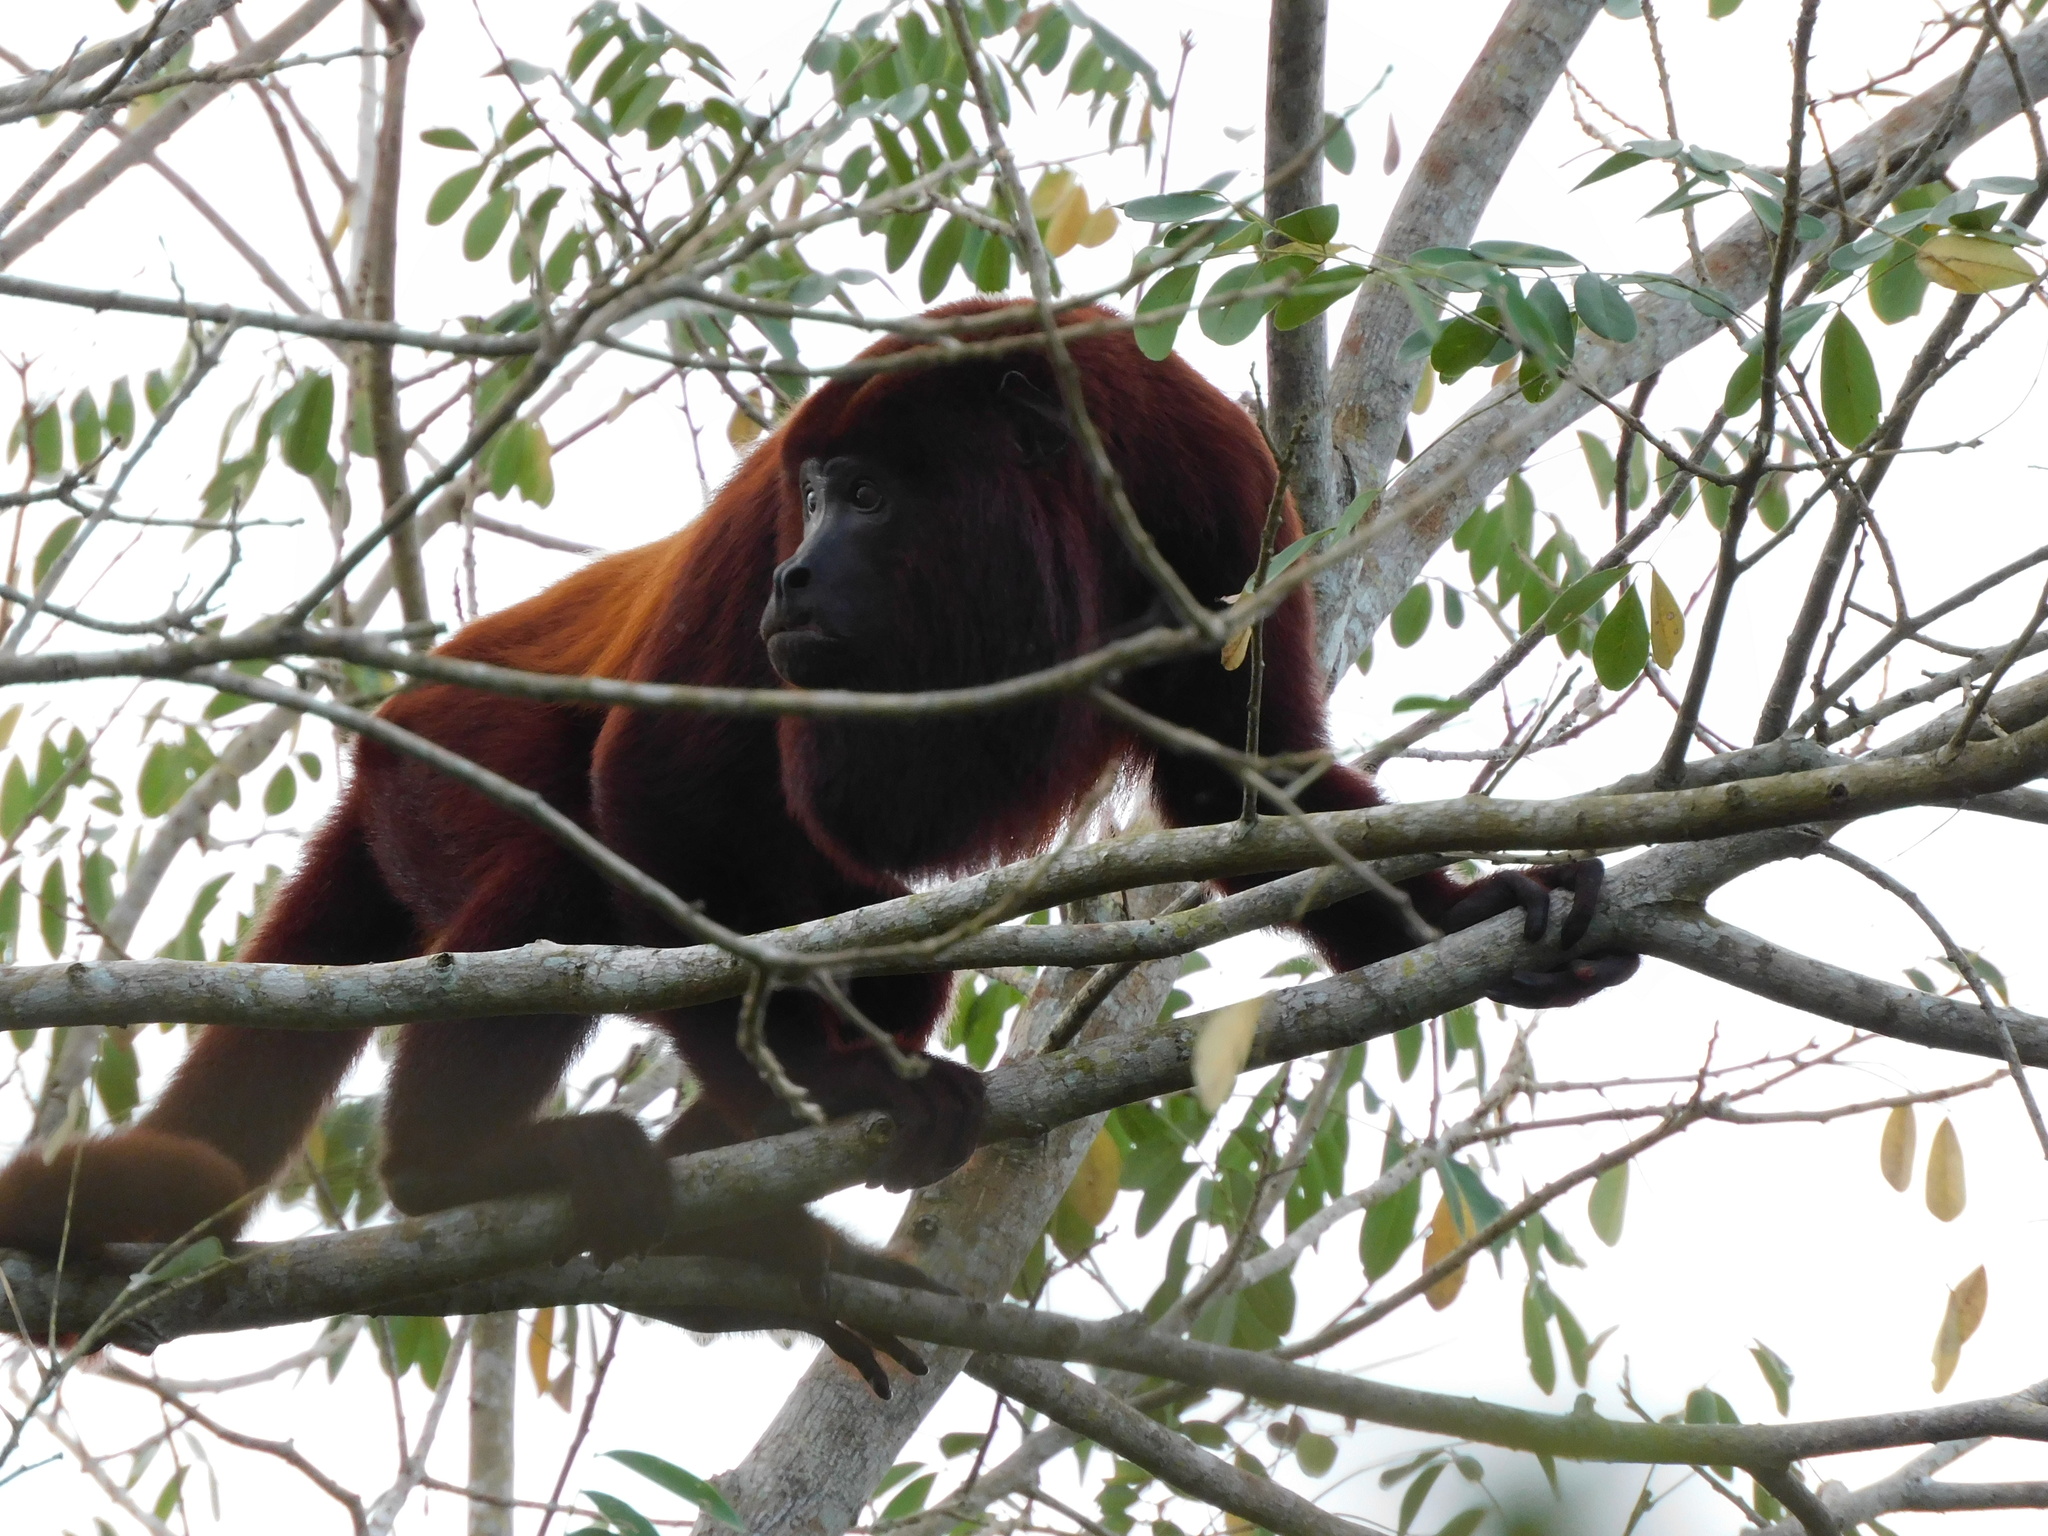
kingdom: Animalia
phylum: Chordata
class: Mammalia
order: Primates
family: Atelidae
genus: Alouatta
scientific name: Alouatta seniculus
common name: Venezuelan red howler
